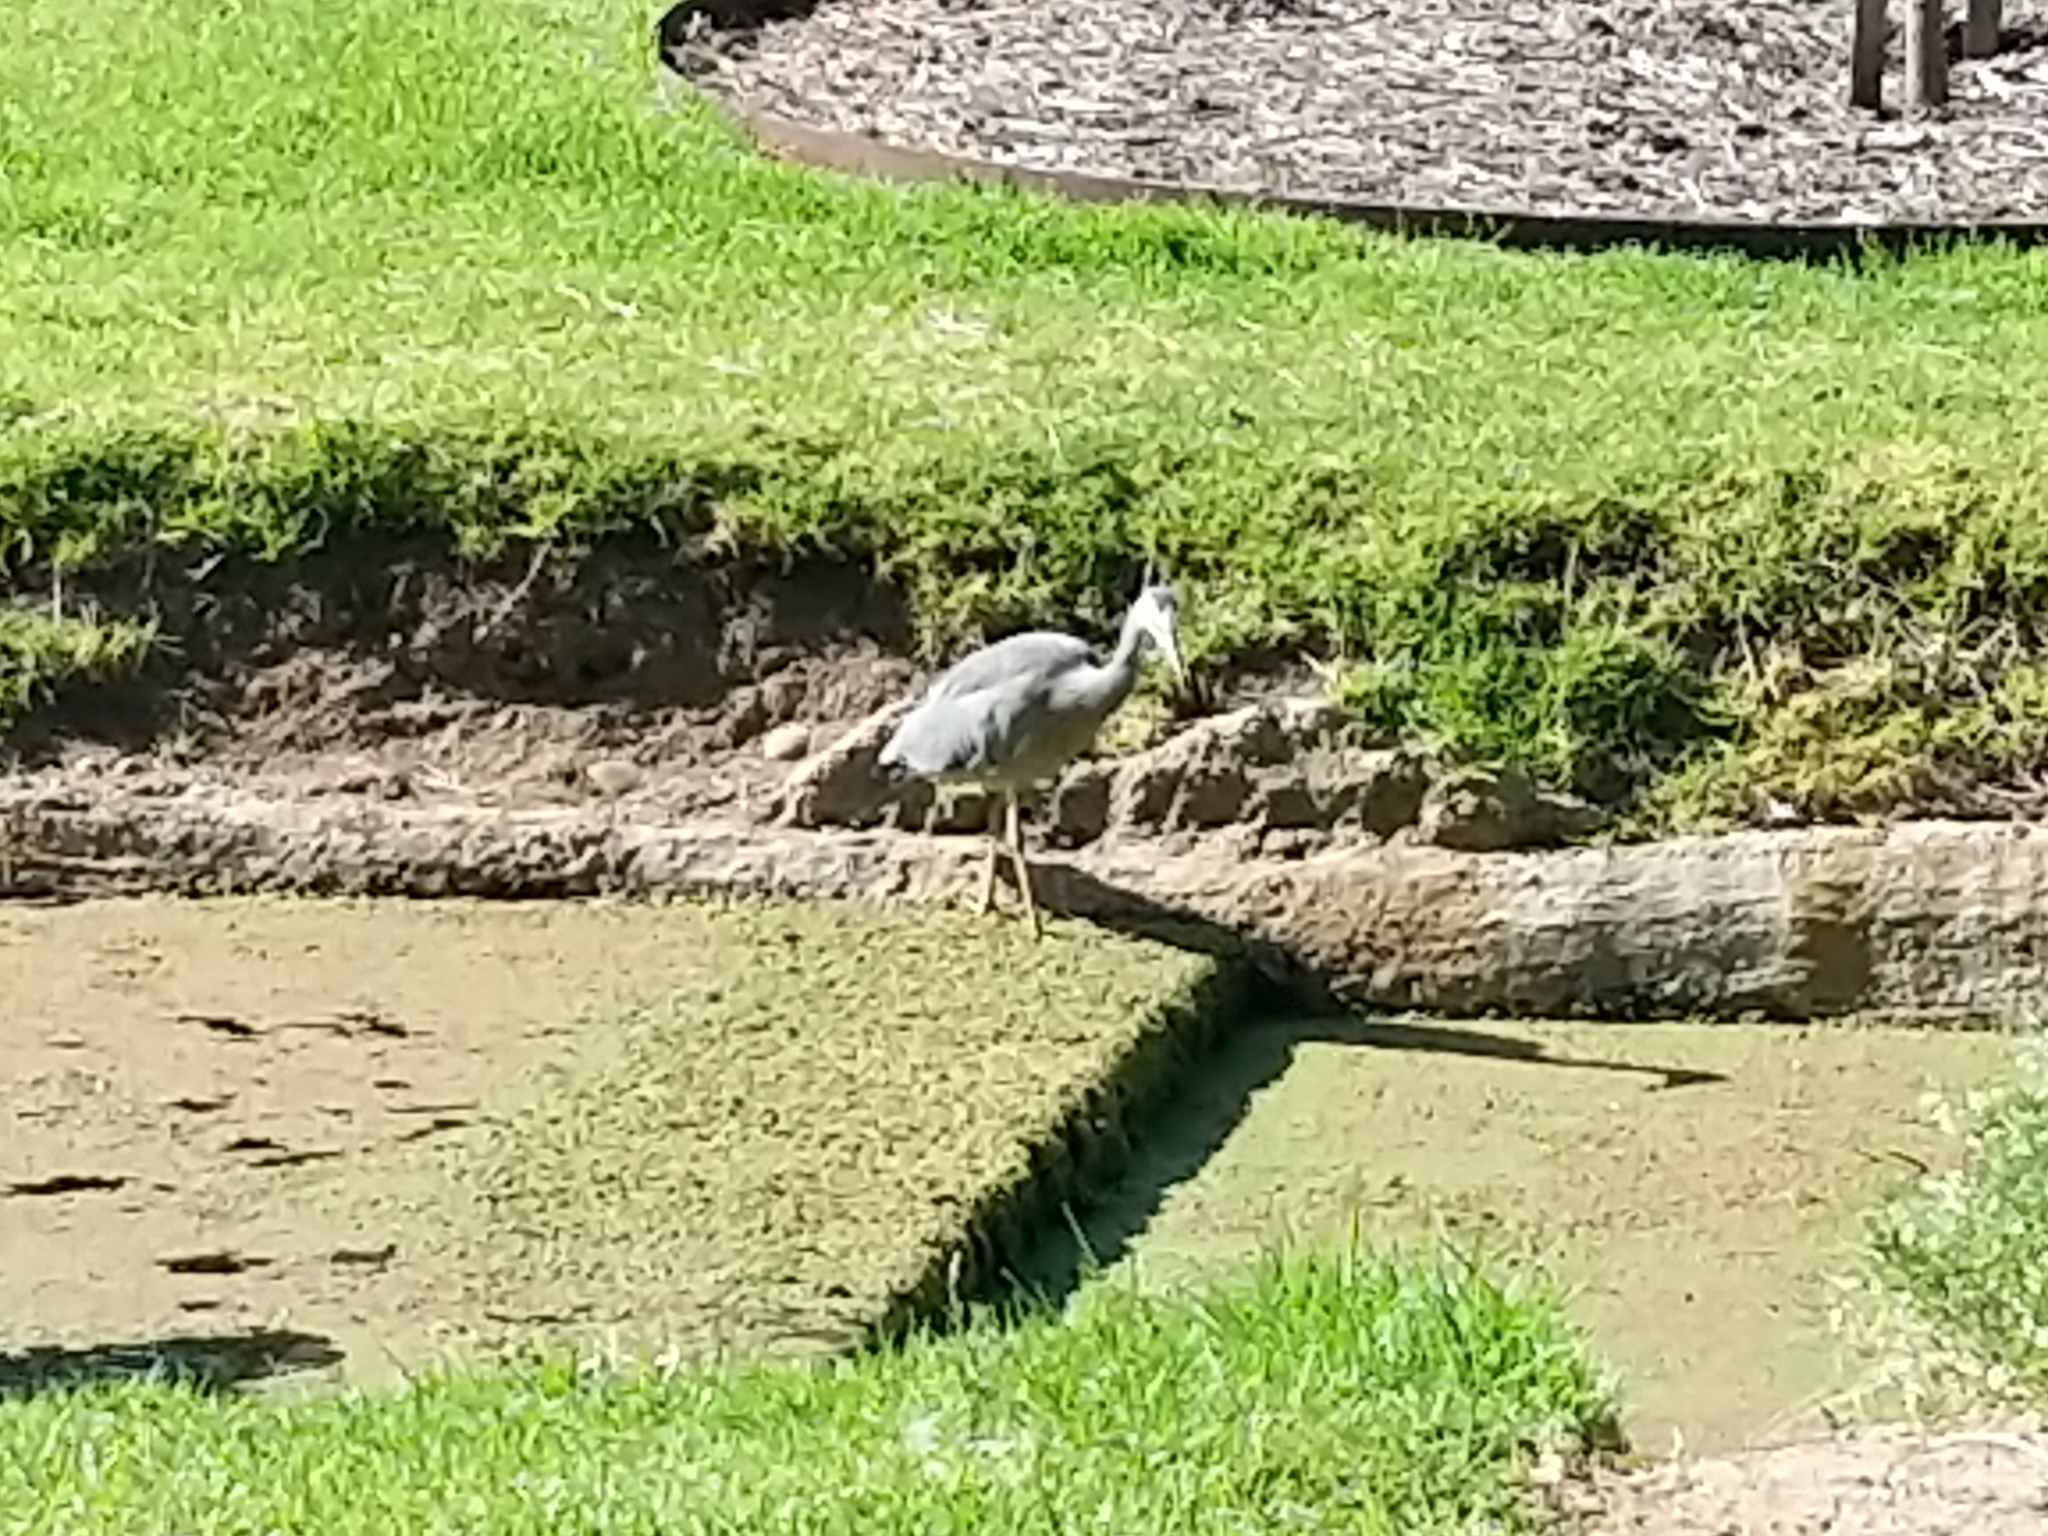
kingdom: Animalia
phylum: Chordata
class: Aves
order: Pelecaniformes
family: Ardeidae
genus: Egretta
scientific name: Egretta novaehollandiae
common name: White-faced heron
